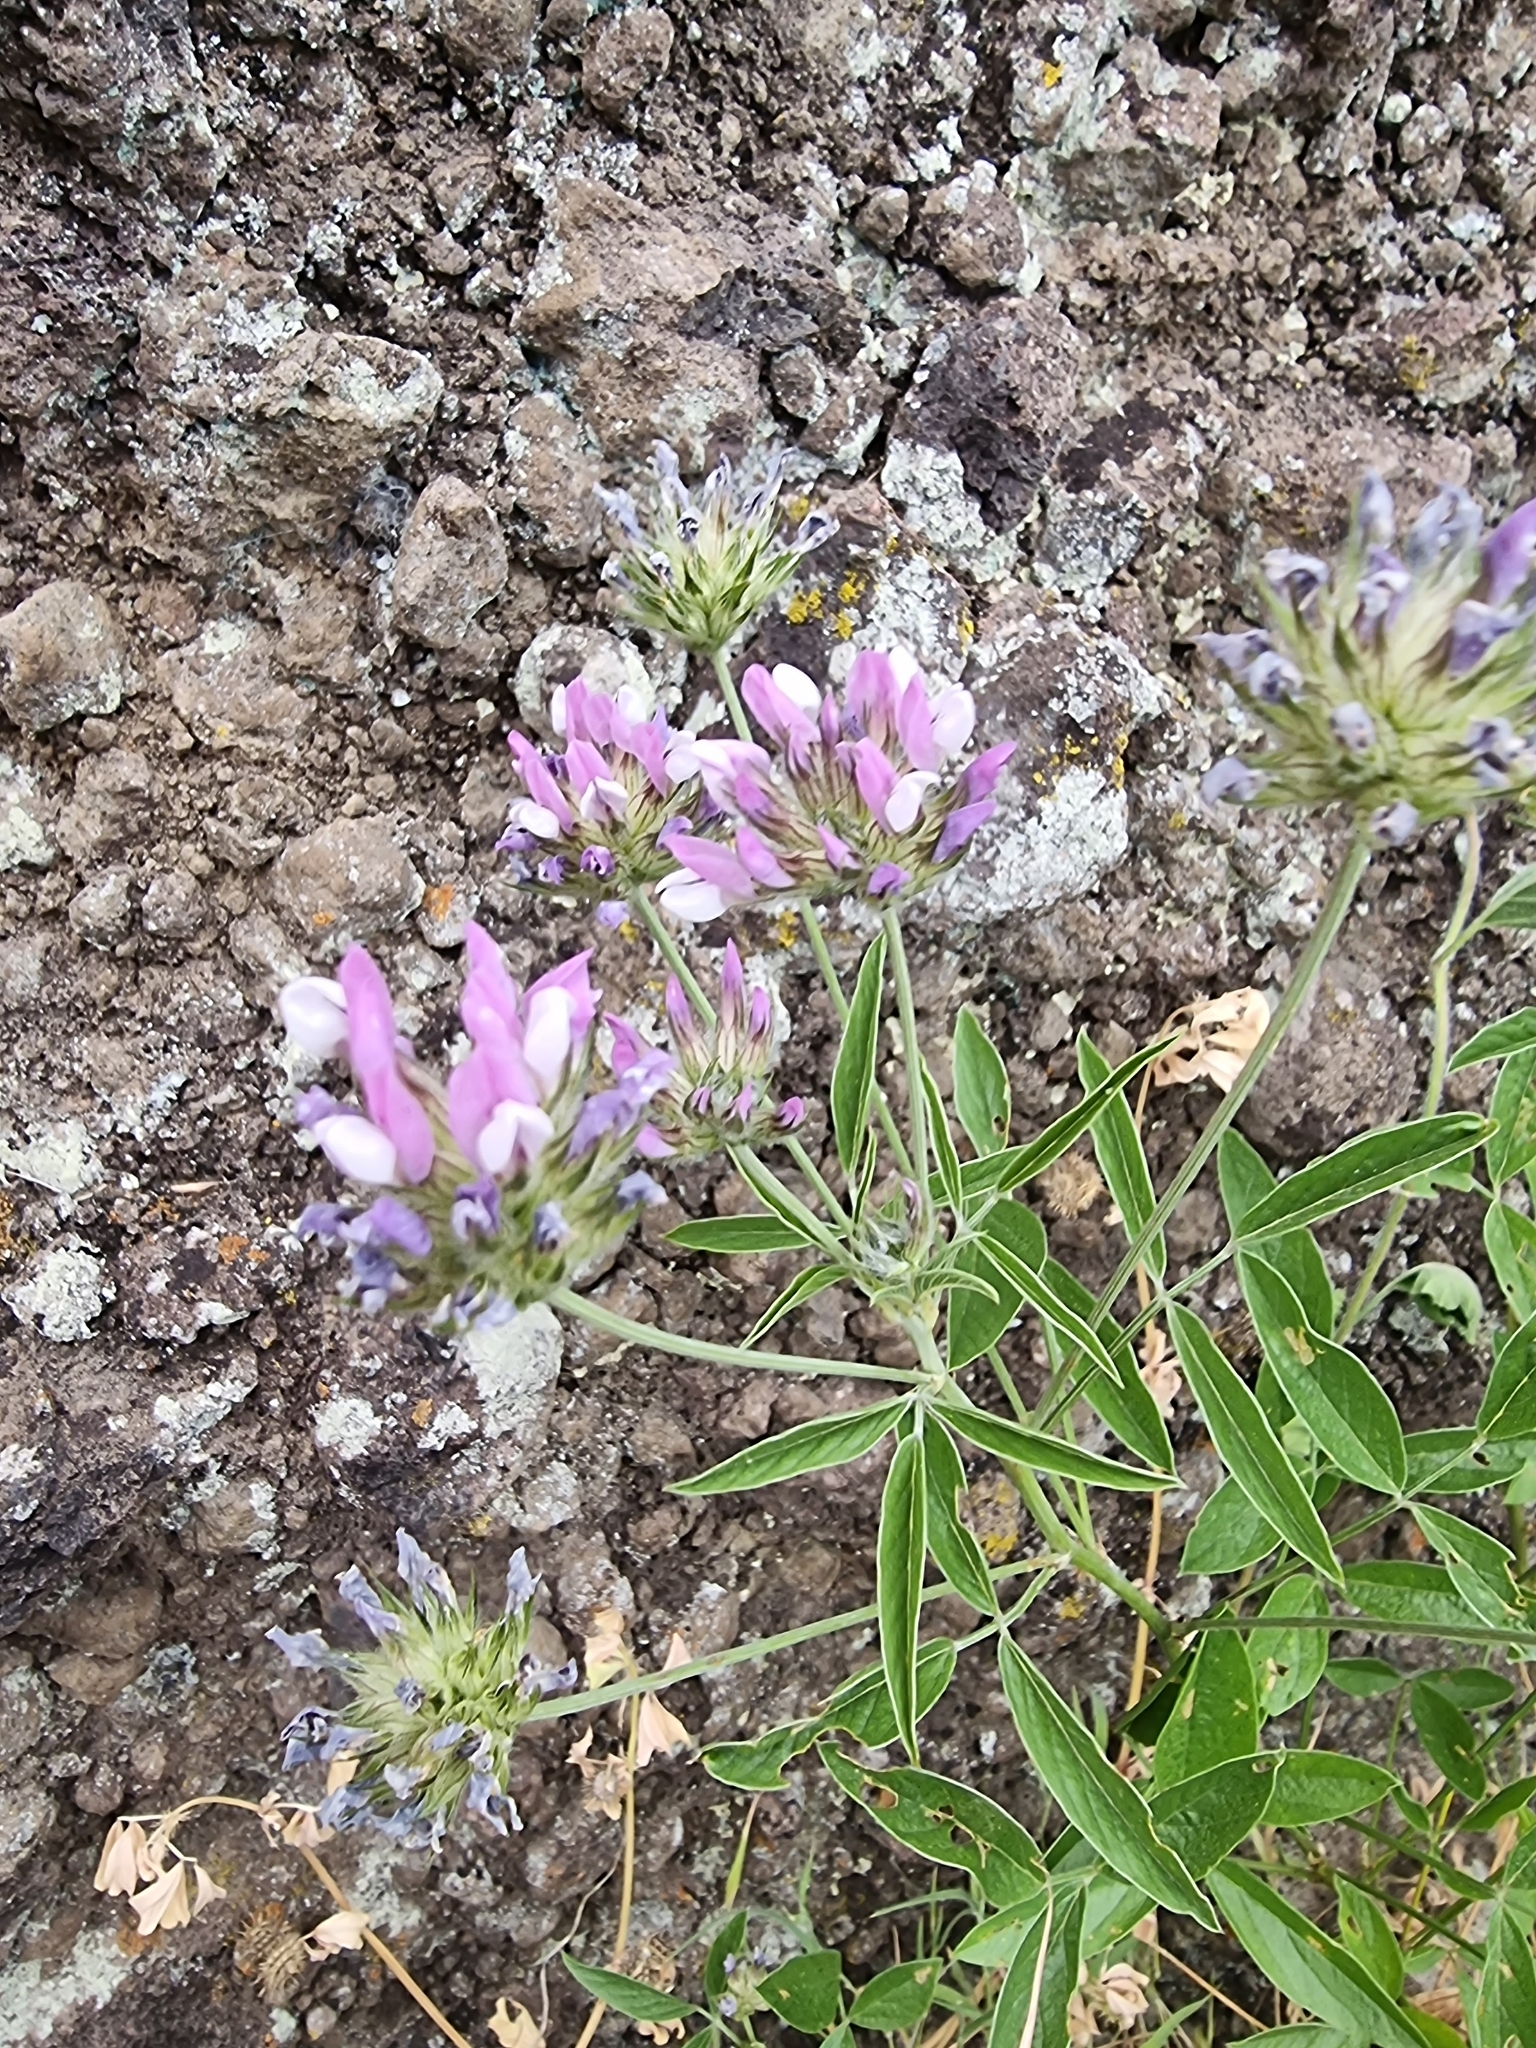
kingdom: Plantae
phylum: Tracheophyta
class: Magnoliopsida
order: Fabales
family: Fabaceae
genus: Bituminaria
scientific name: Bituminaria bituminosa
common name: Arabian pea
